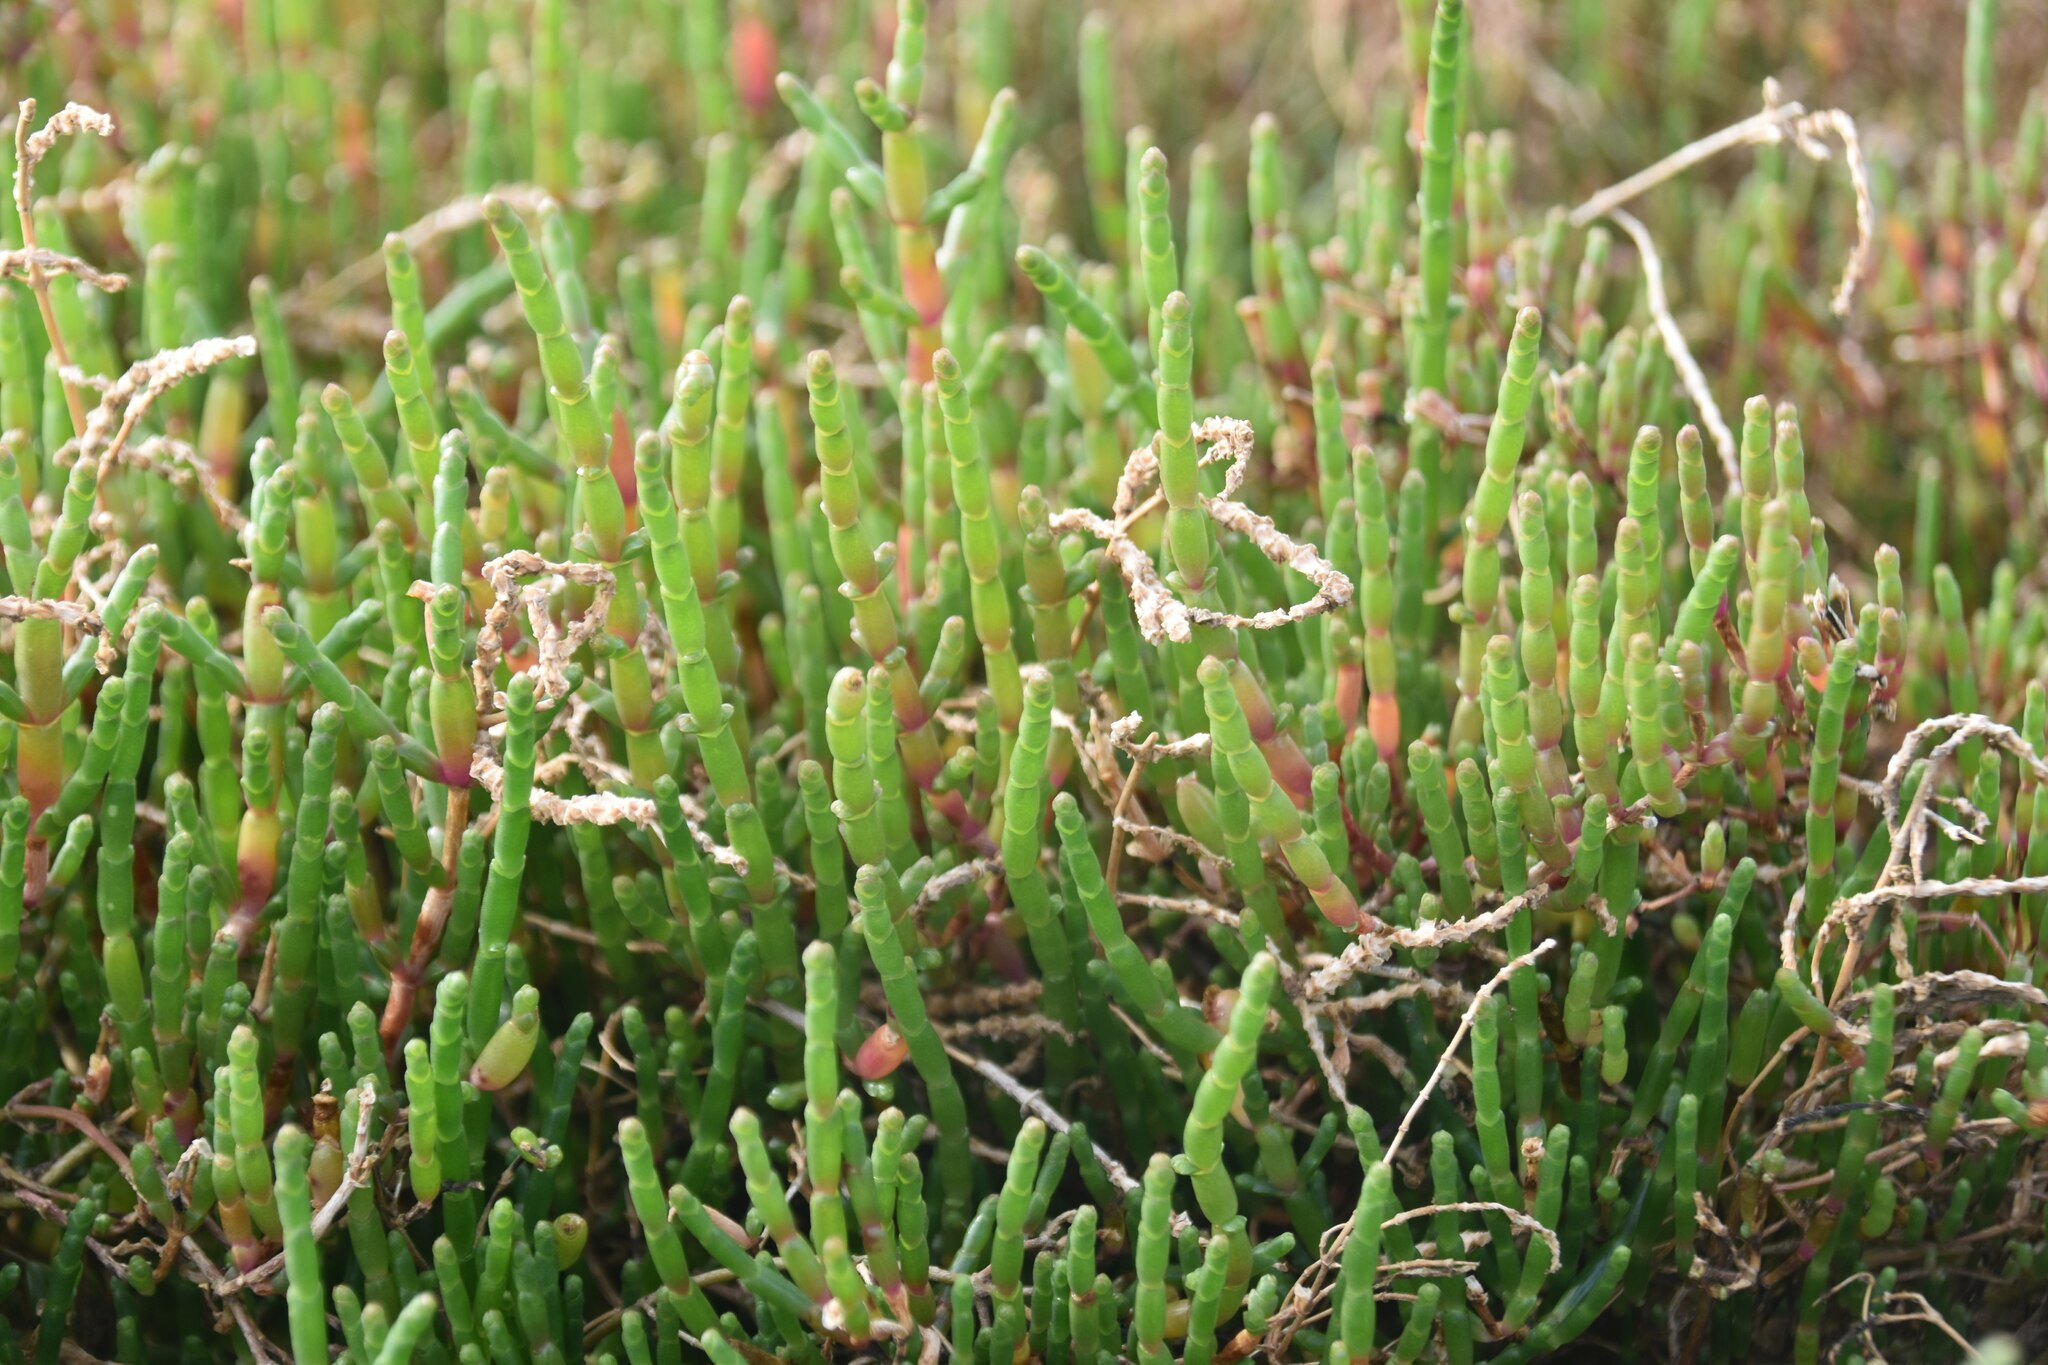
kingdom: Plantae
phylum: Tracheophyta
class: Magnoliopsida
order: Caryophyllales
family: Amaranthaceae
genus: Salicornia
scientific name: Salicornia perennis
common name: Chicken claws
